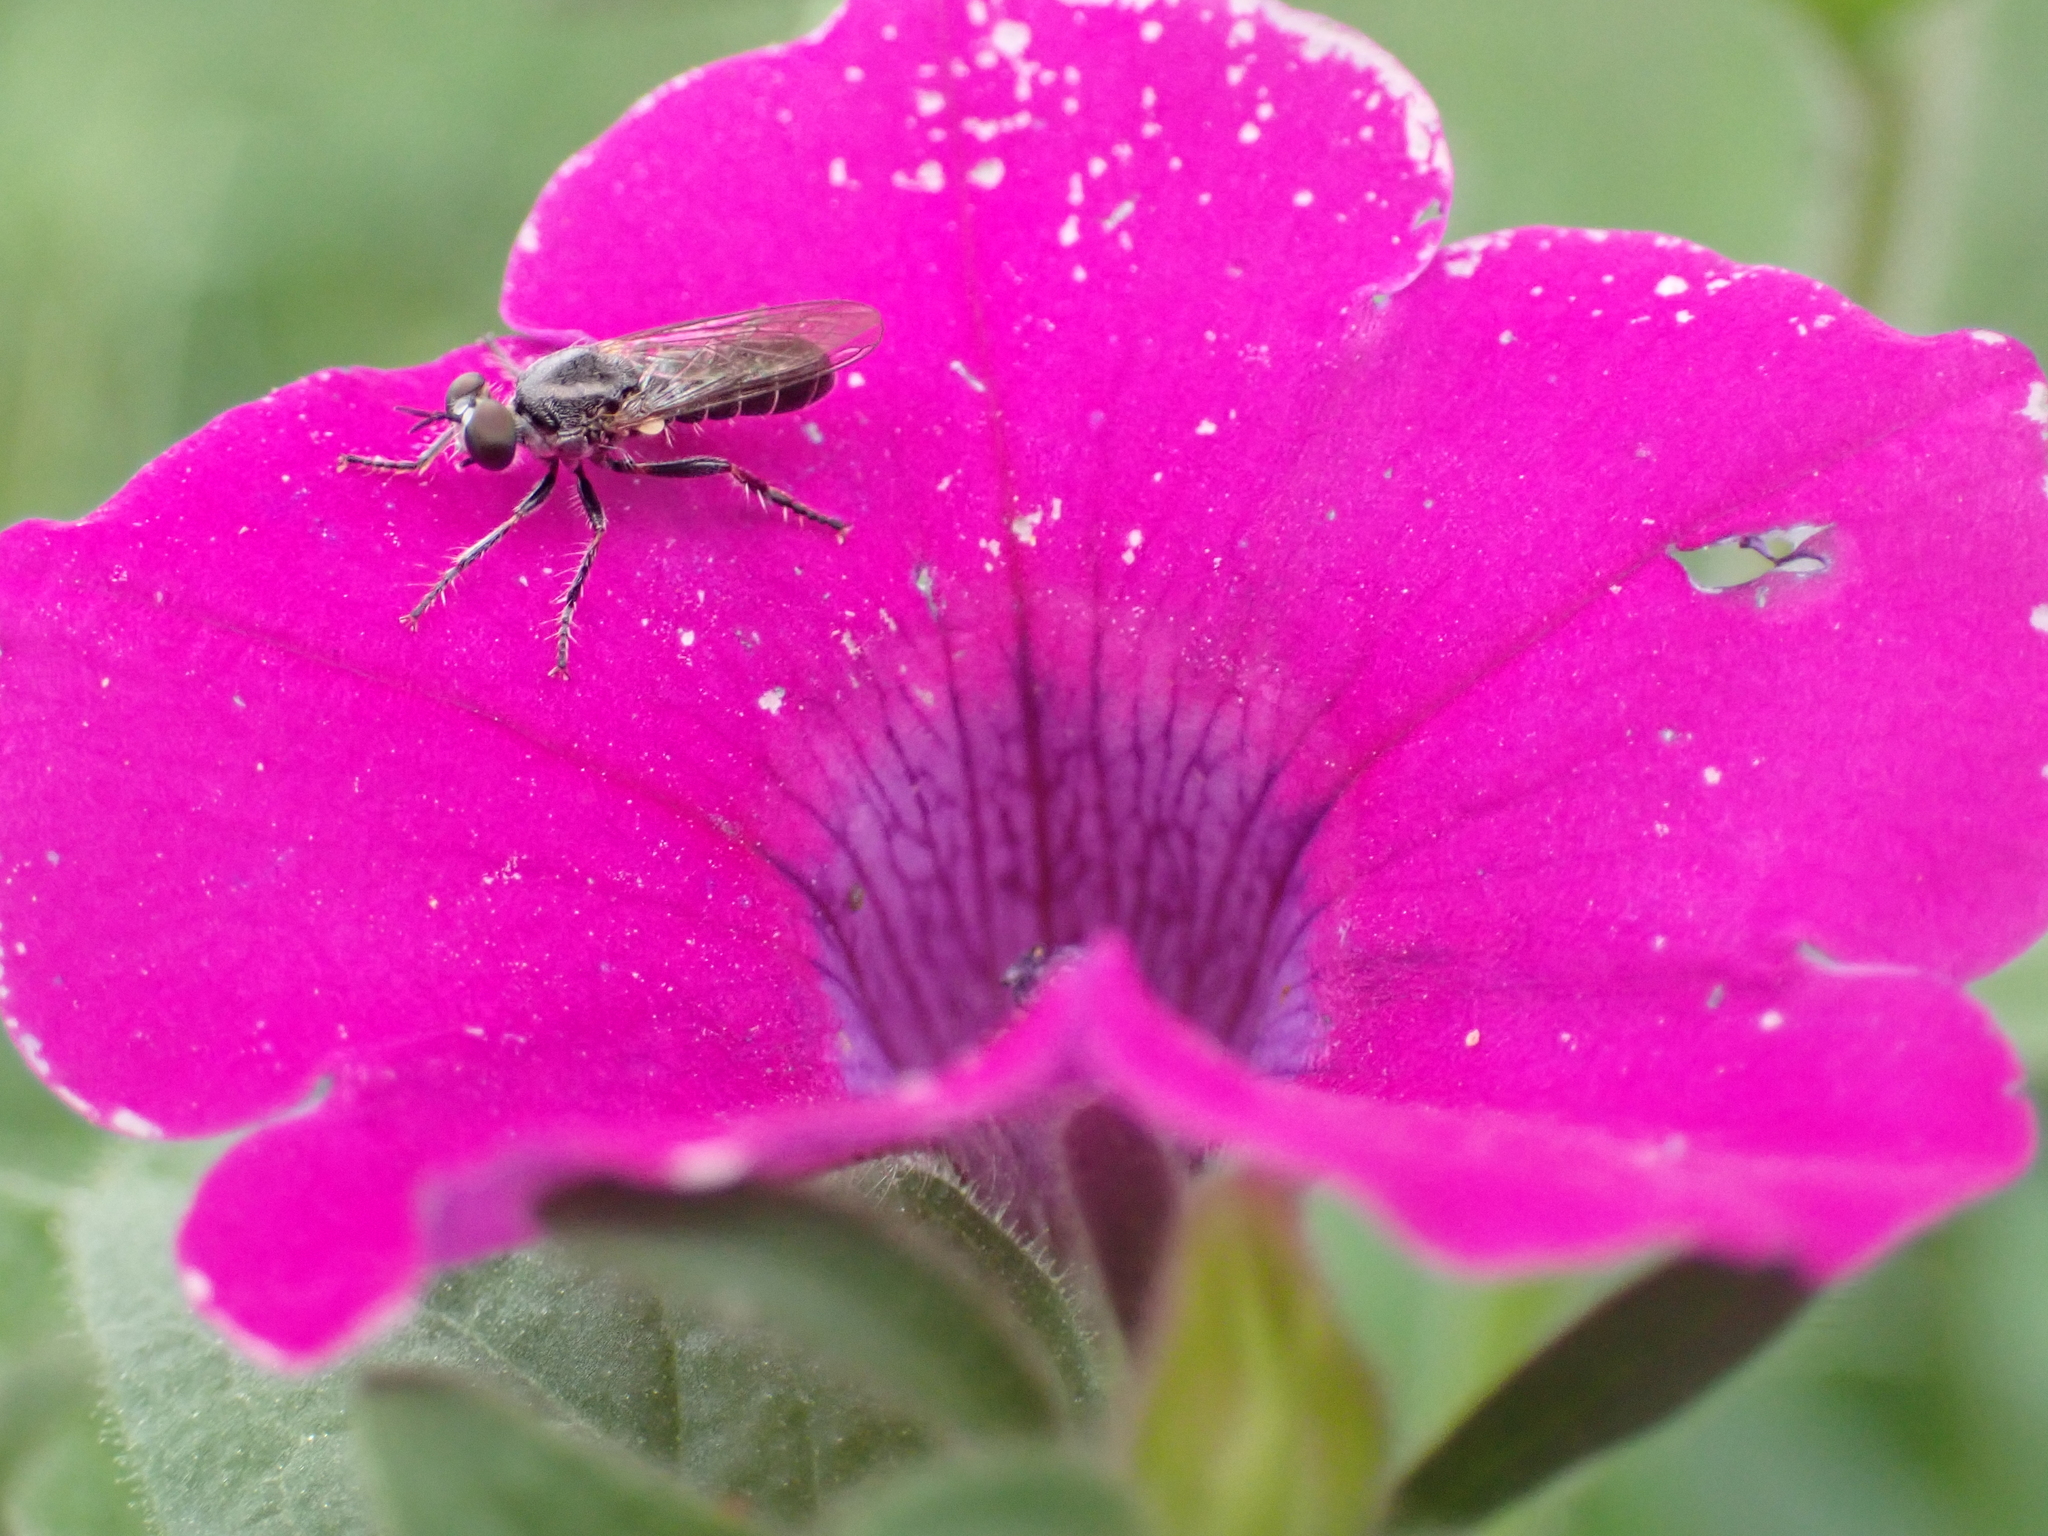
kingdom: Animalia
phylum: Arthropoda
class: Insecta
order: Diptera
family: Asilidae
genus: Atomosia
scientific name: Atomosia puella
